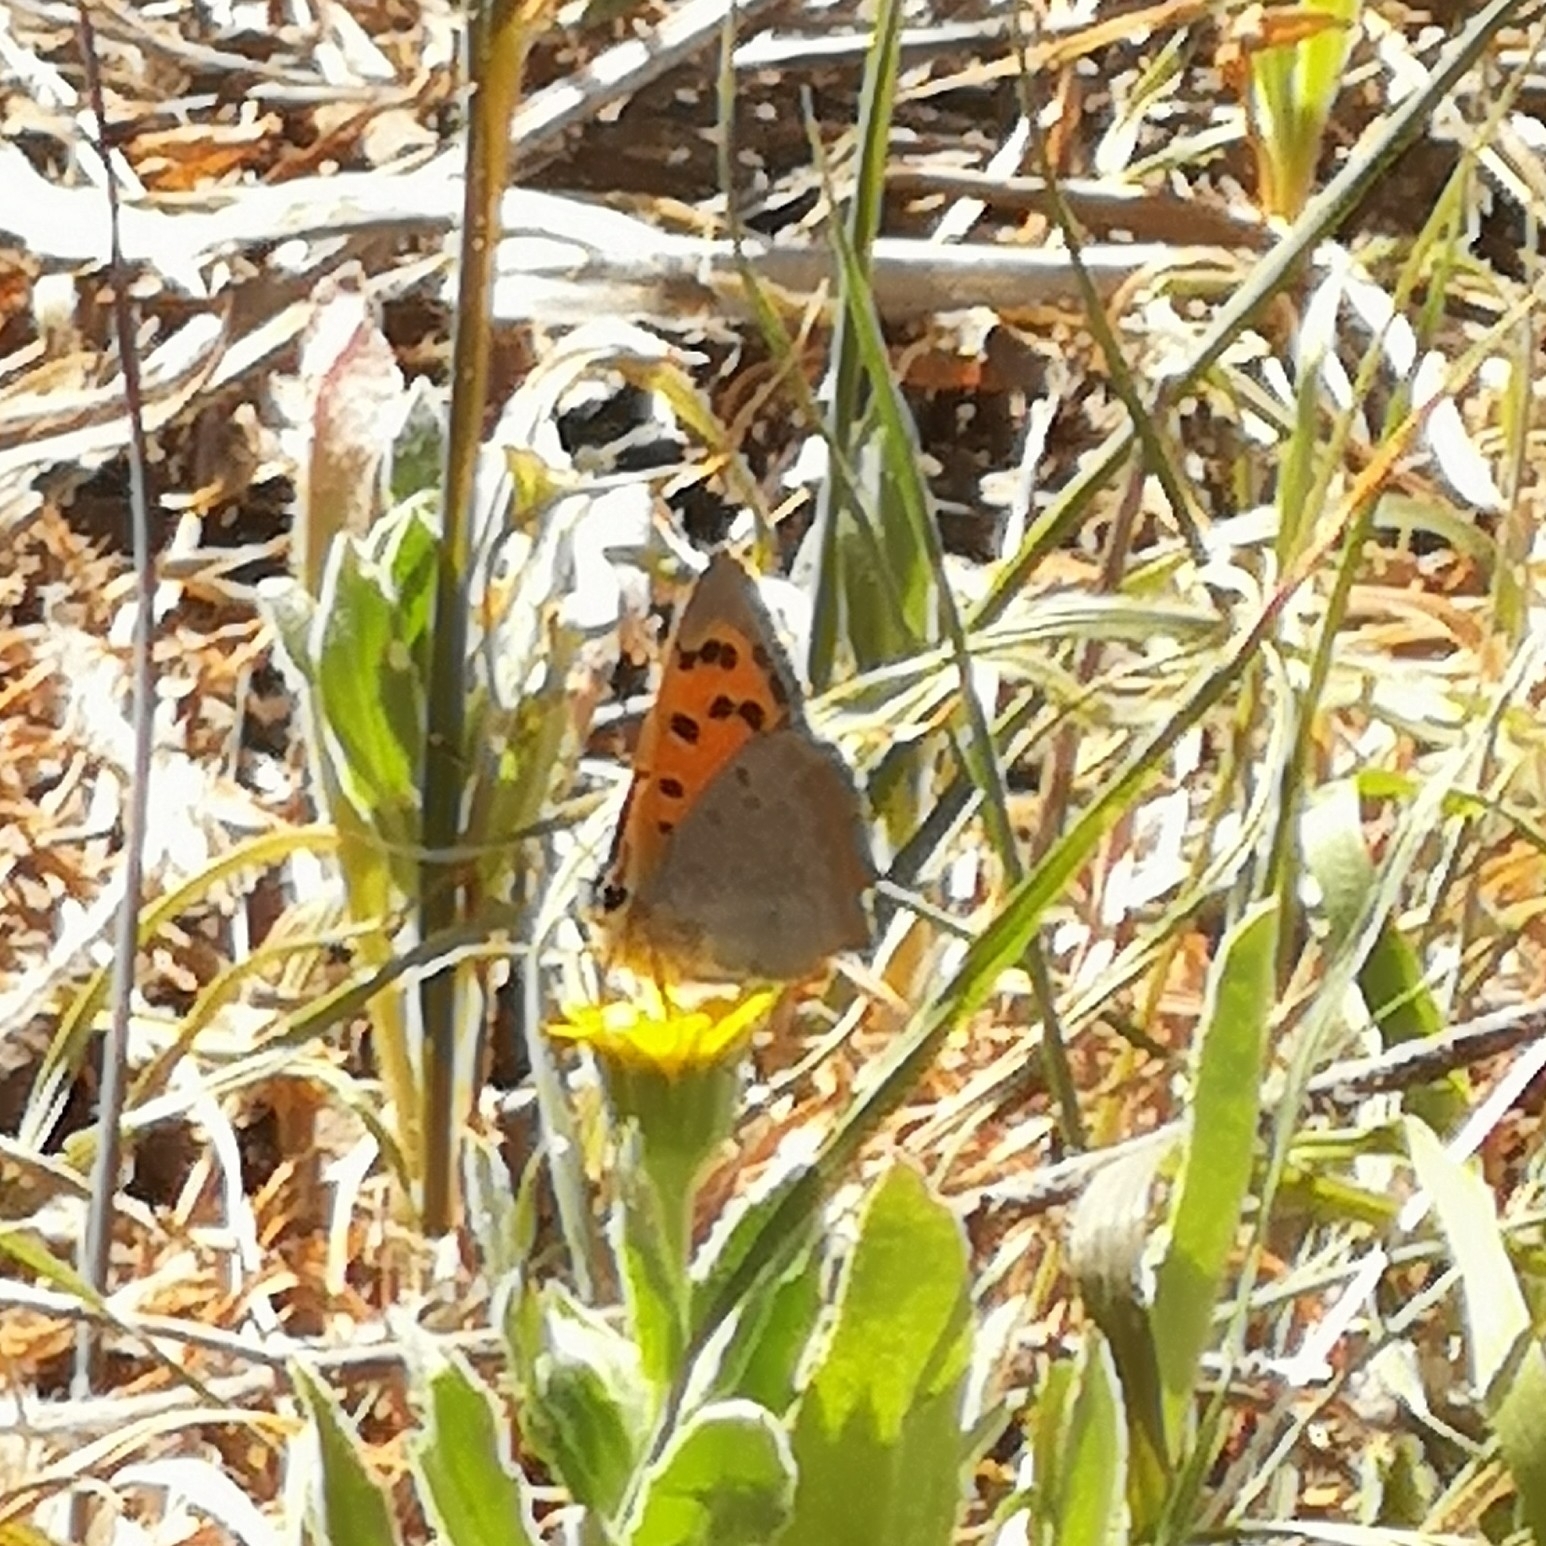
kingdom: Animalia
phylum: Arthropoda
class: Insecta
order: Lepidoptera
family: Lycaenidae
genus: Lycaena
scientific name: Lycaena phlaeas
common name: Small copper
